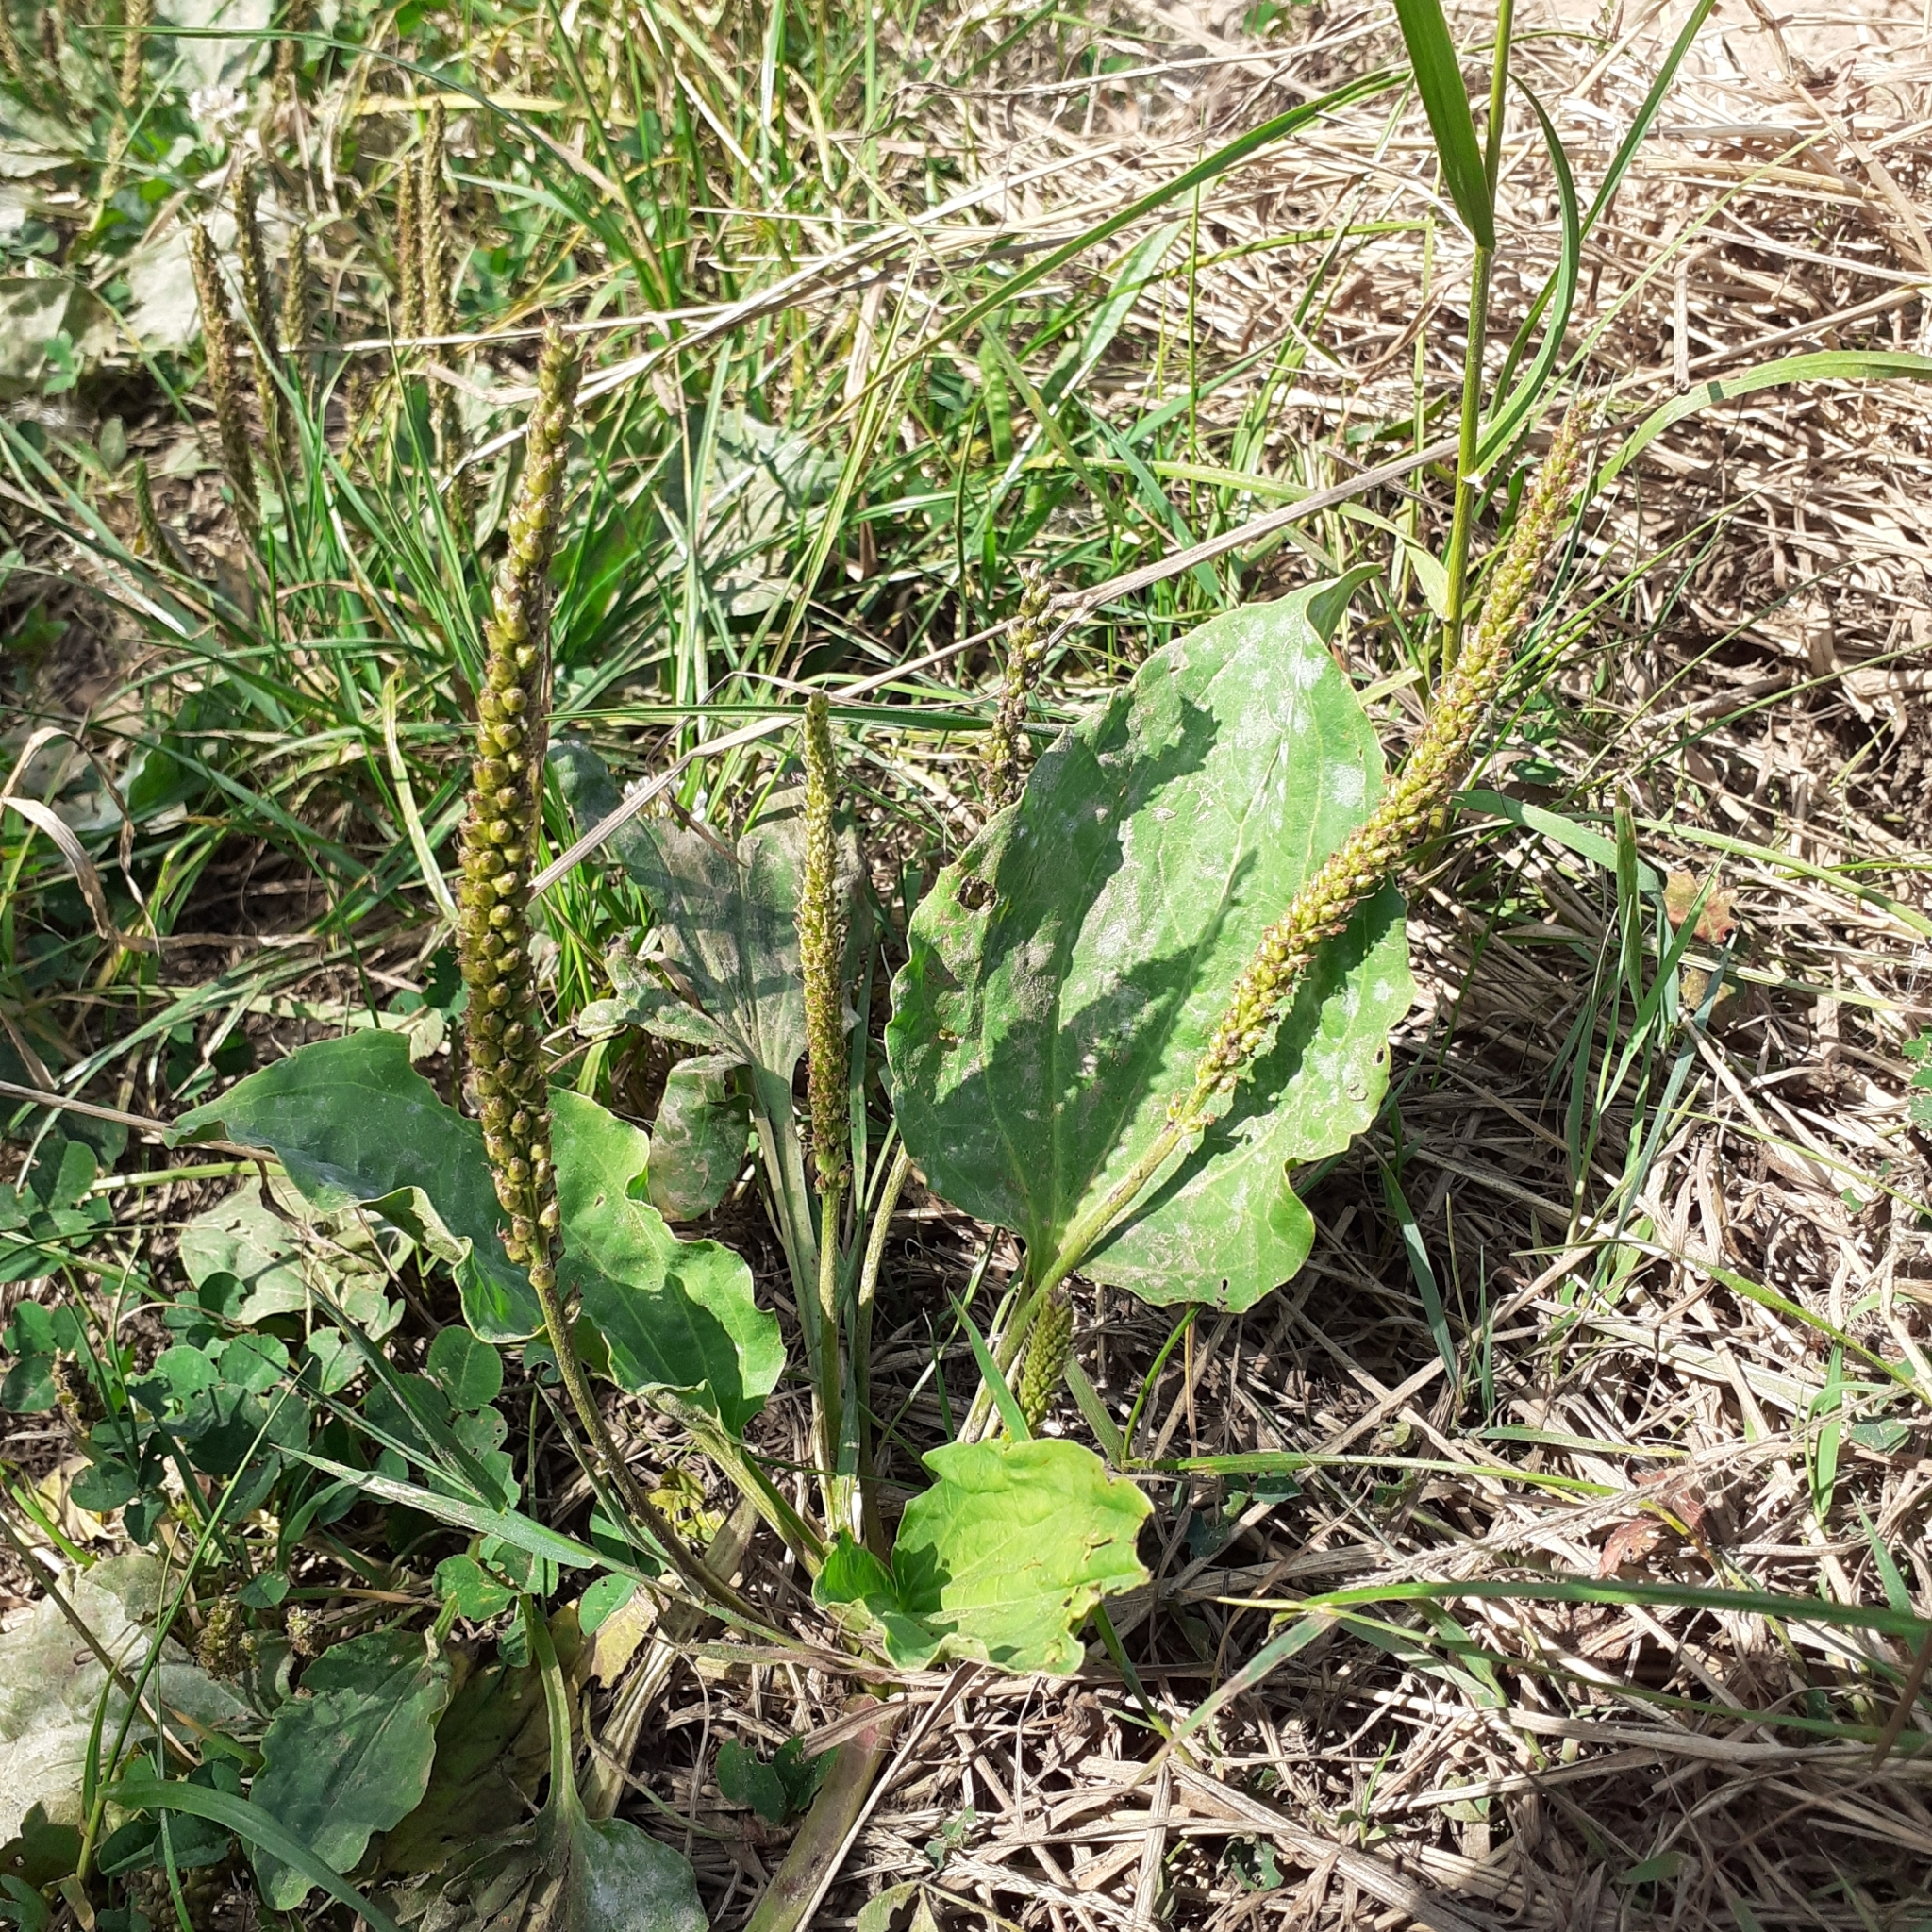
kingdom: Plantae
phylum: Tracheophyta
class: Magnoliopsida
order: Lamiales
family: Plantaginaceae
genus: Plantago
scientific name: Plantago major
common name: Common plantain
